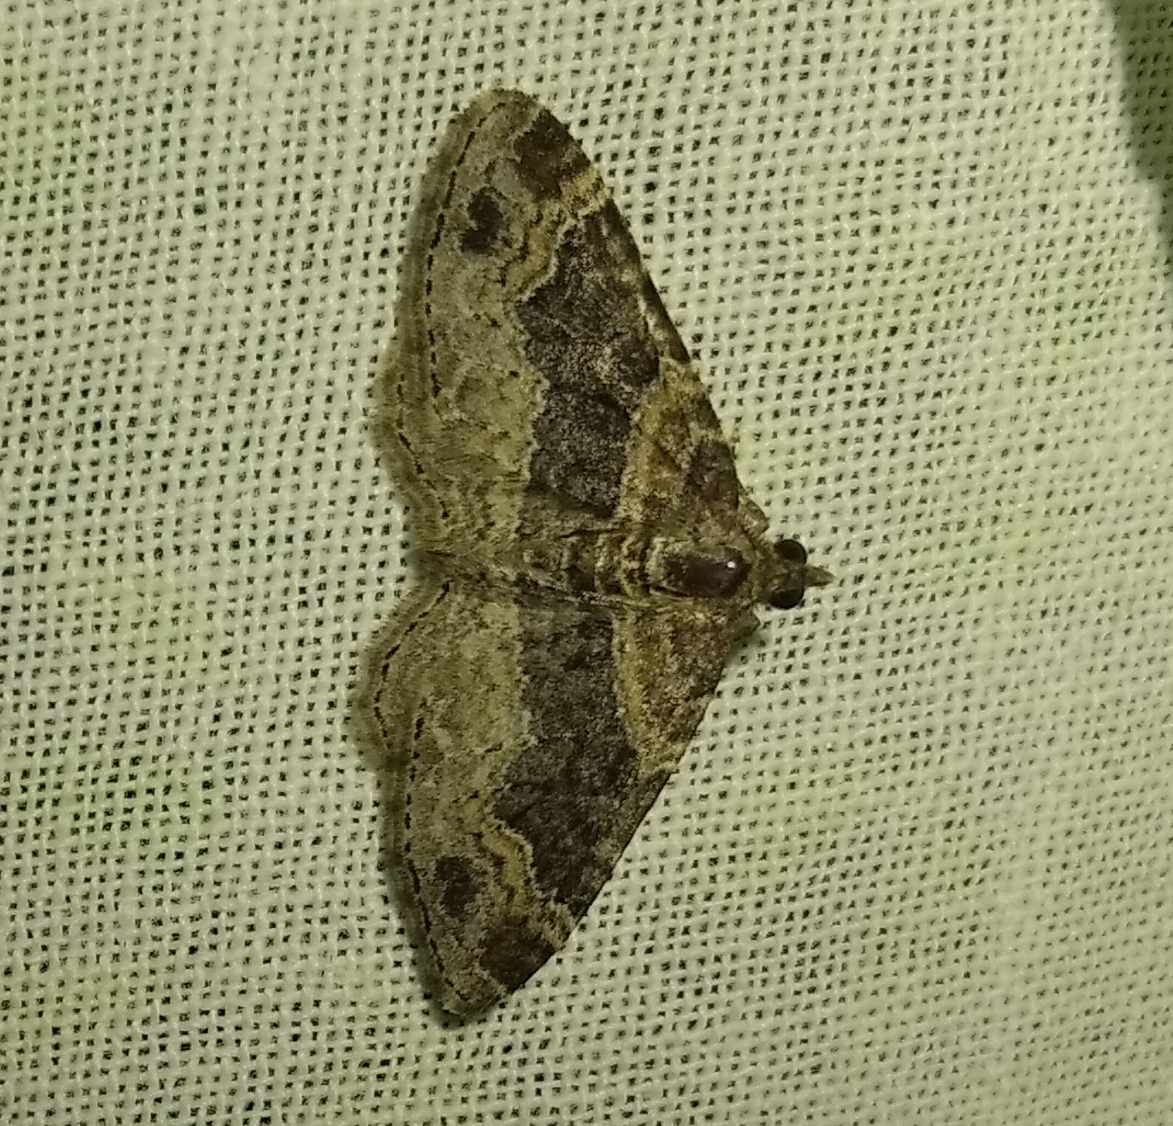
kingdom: Animalia
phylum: Arthropoda
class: Insecta
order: Lepidoptera
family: Geometridae
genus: Xanthorhoe
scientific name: Xanthorhoe ferrugata
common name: Dark-barred twin-spot carpet
